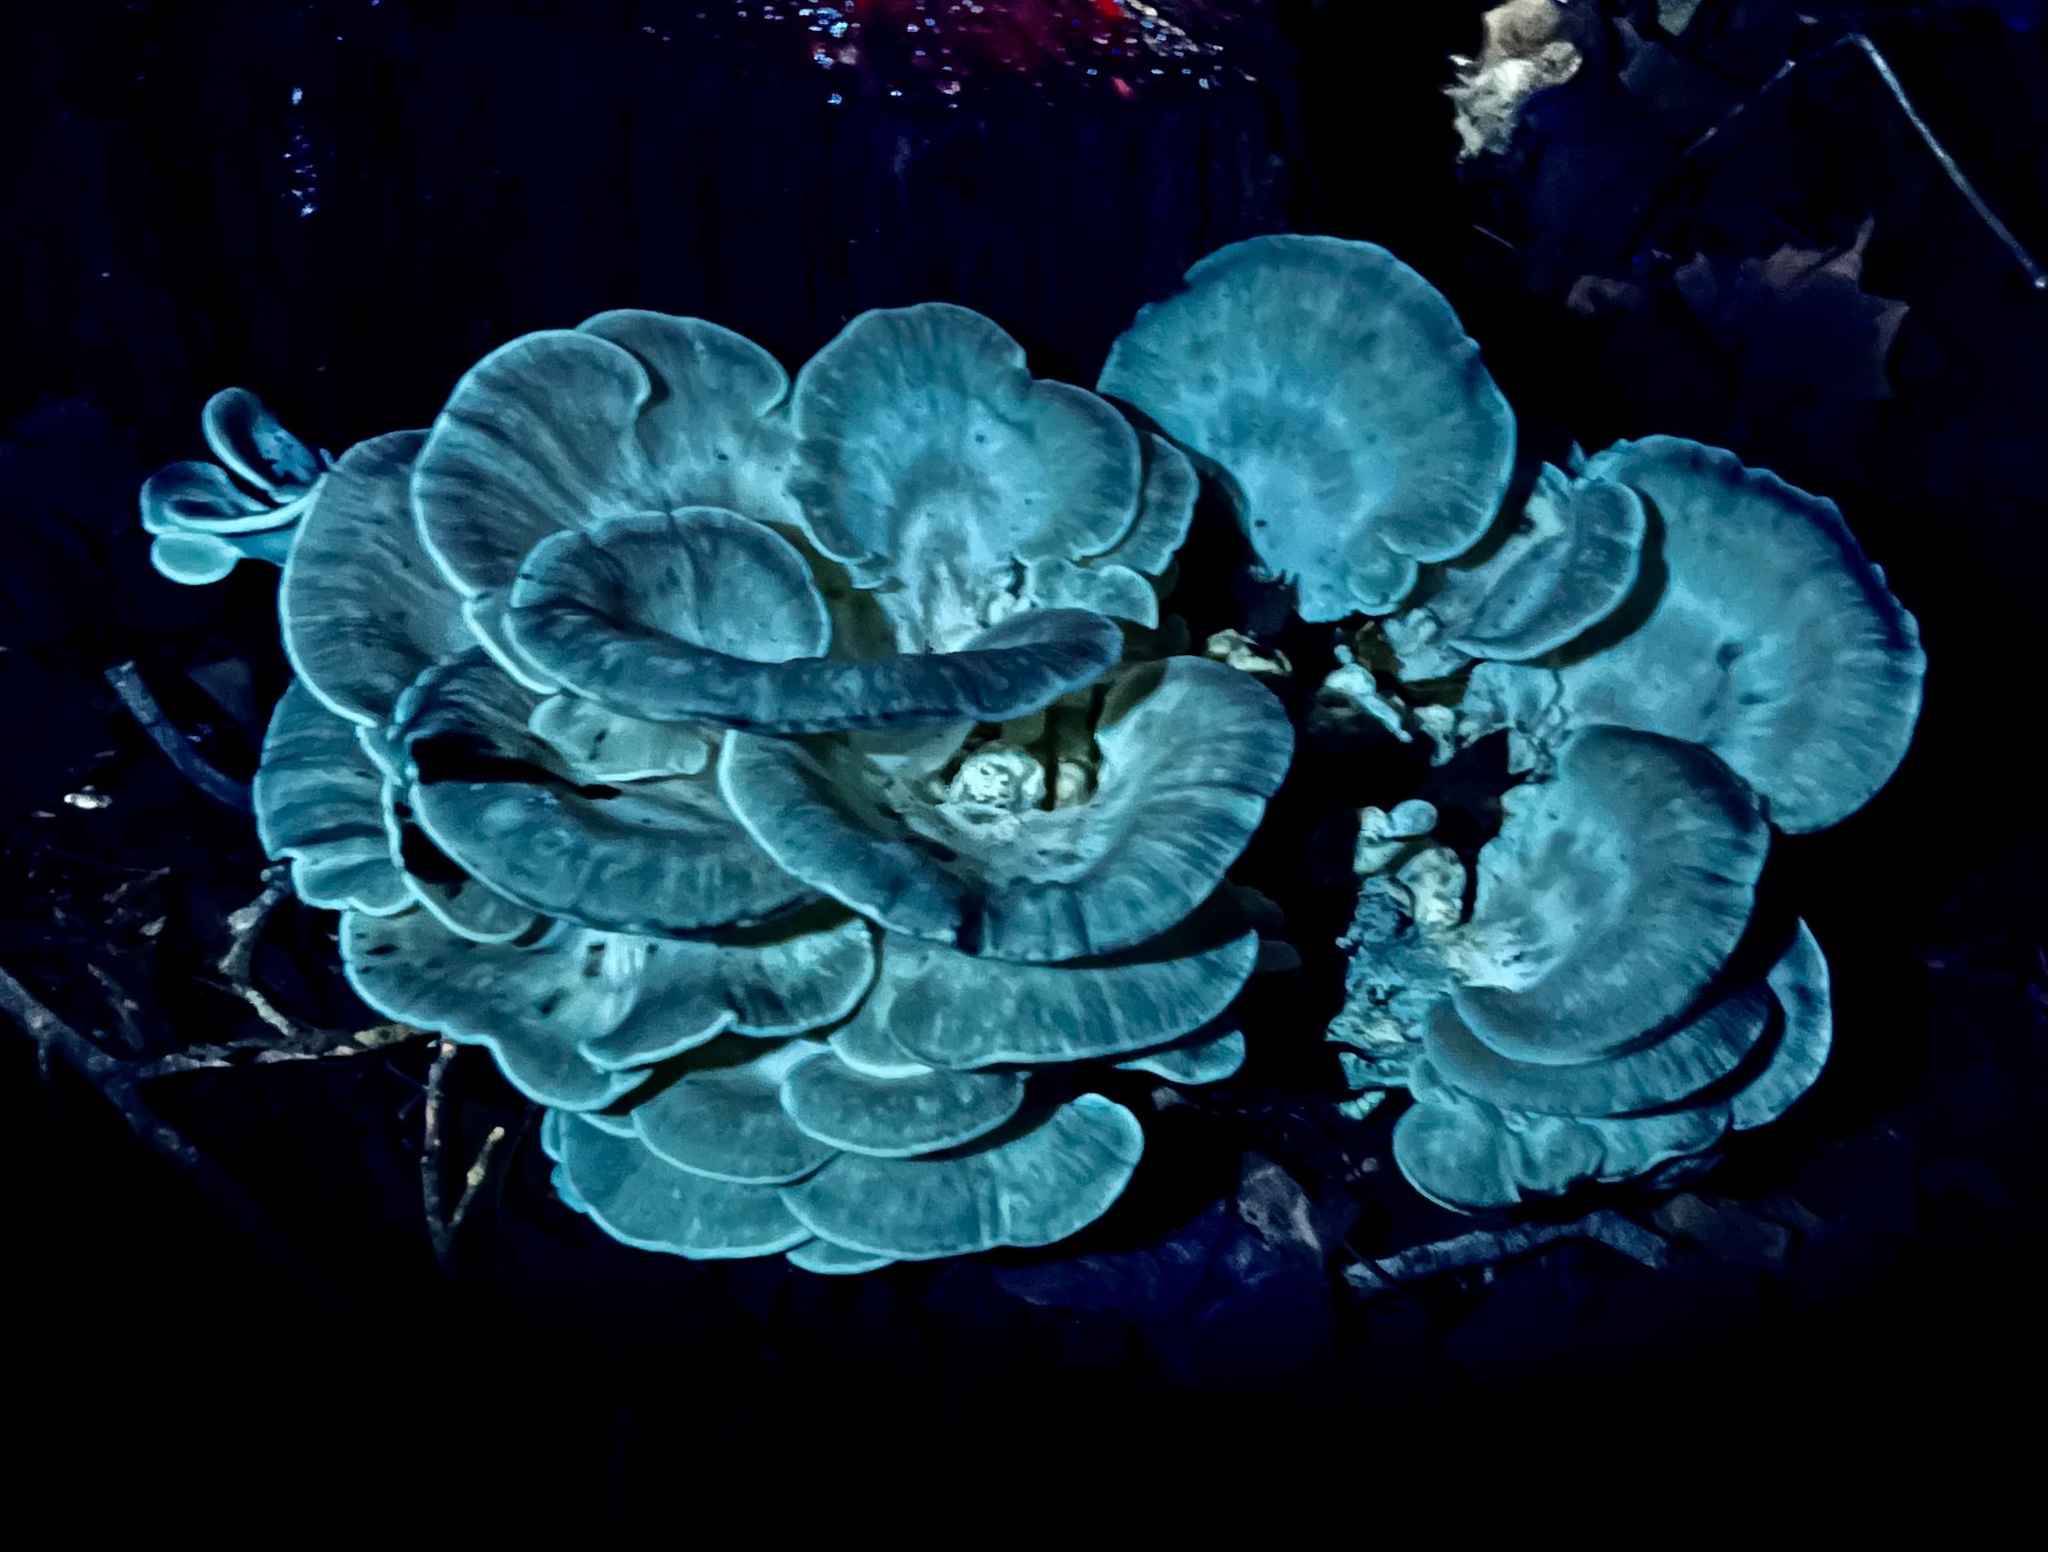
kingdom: Fungi
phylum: Basidiomycota
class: Agaricomycetes
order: Polyporales
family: Meripilaceae
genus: Meripilus
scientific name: Meripilus sumstinei
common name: Black-staining polypore
